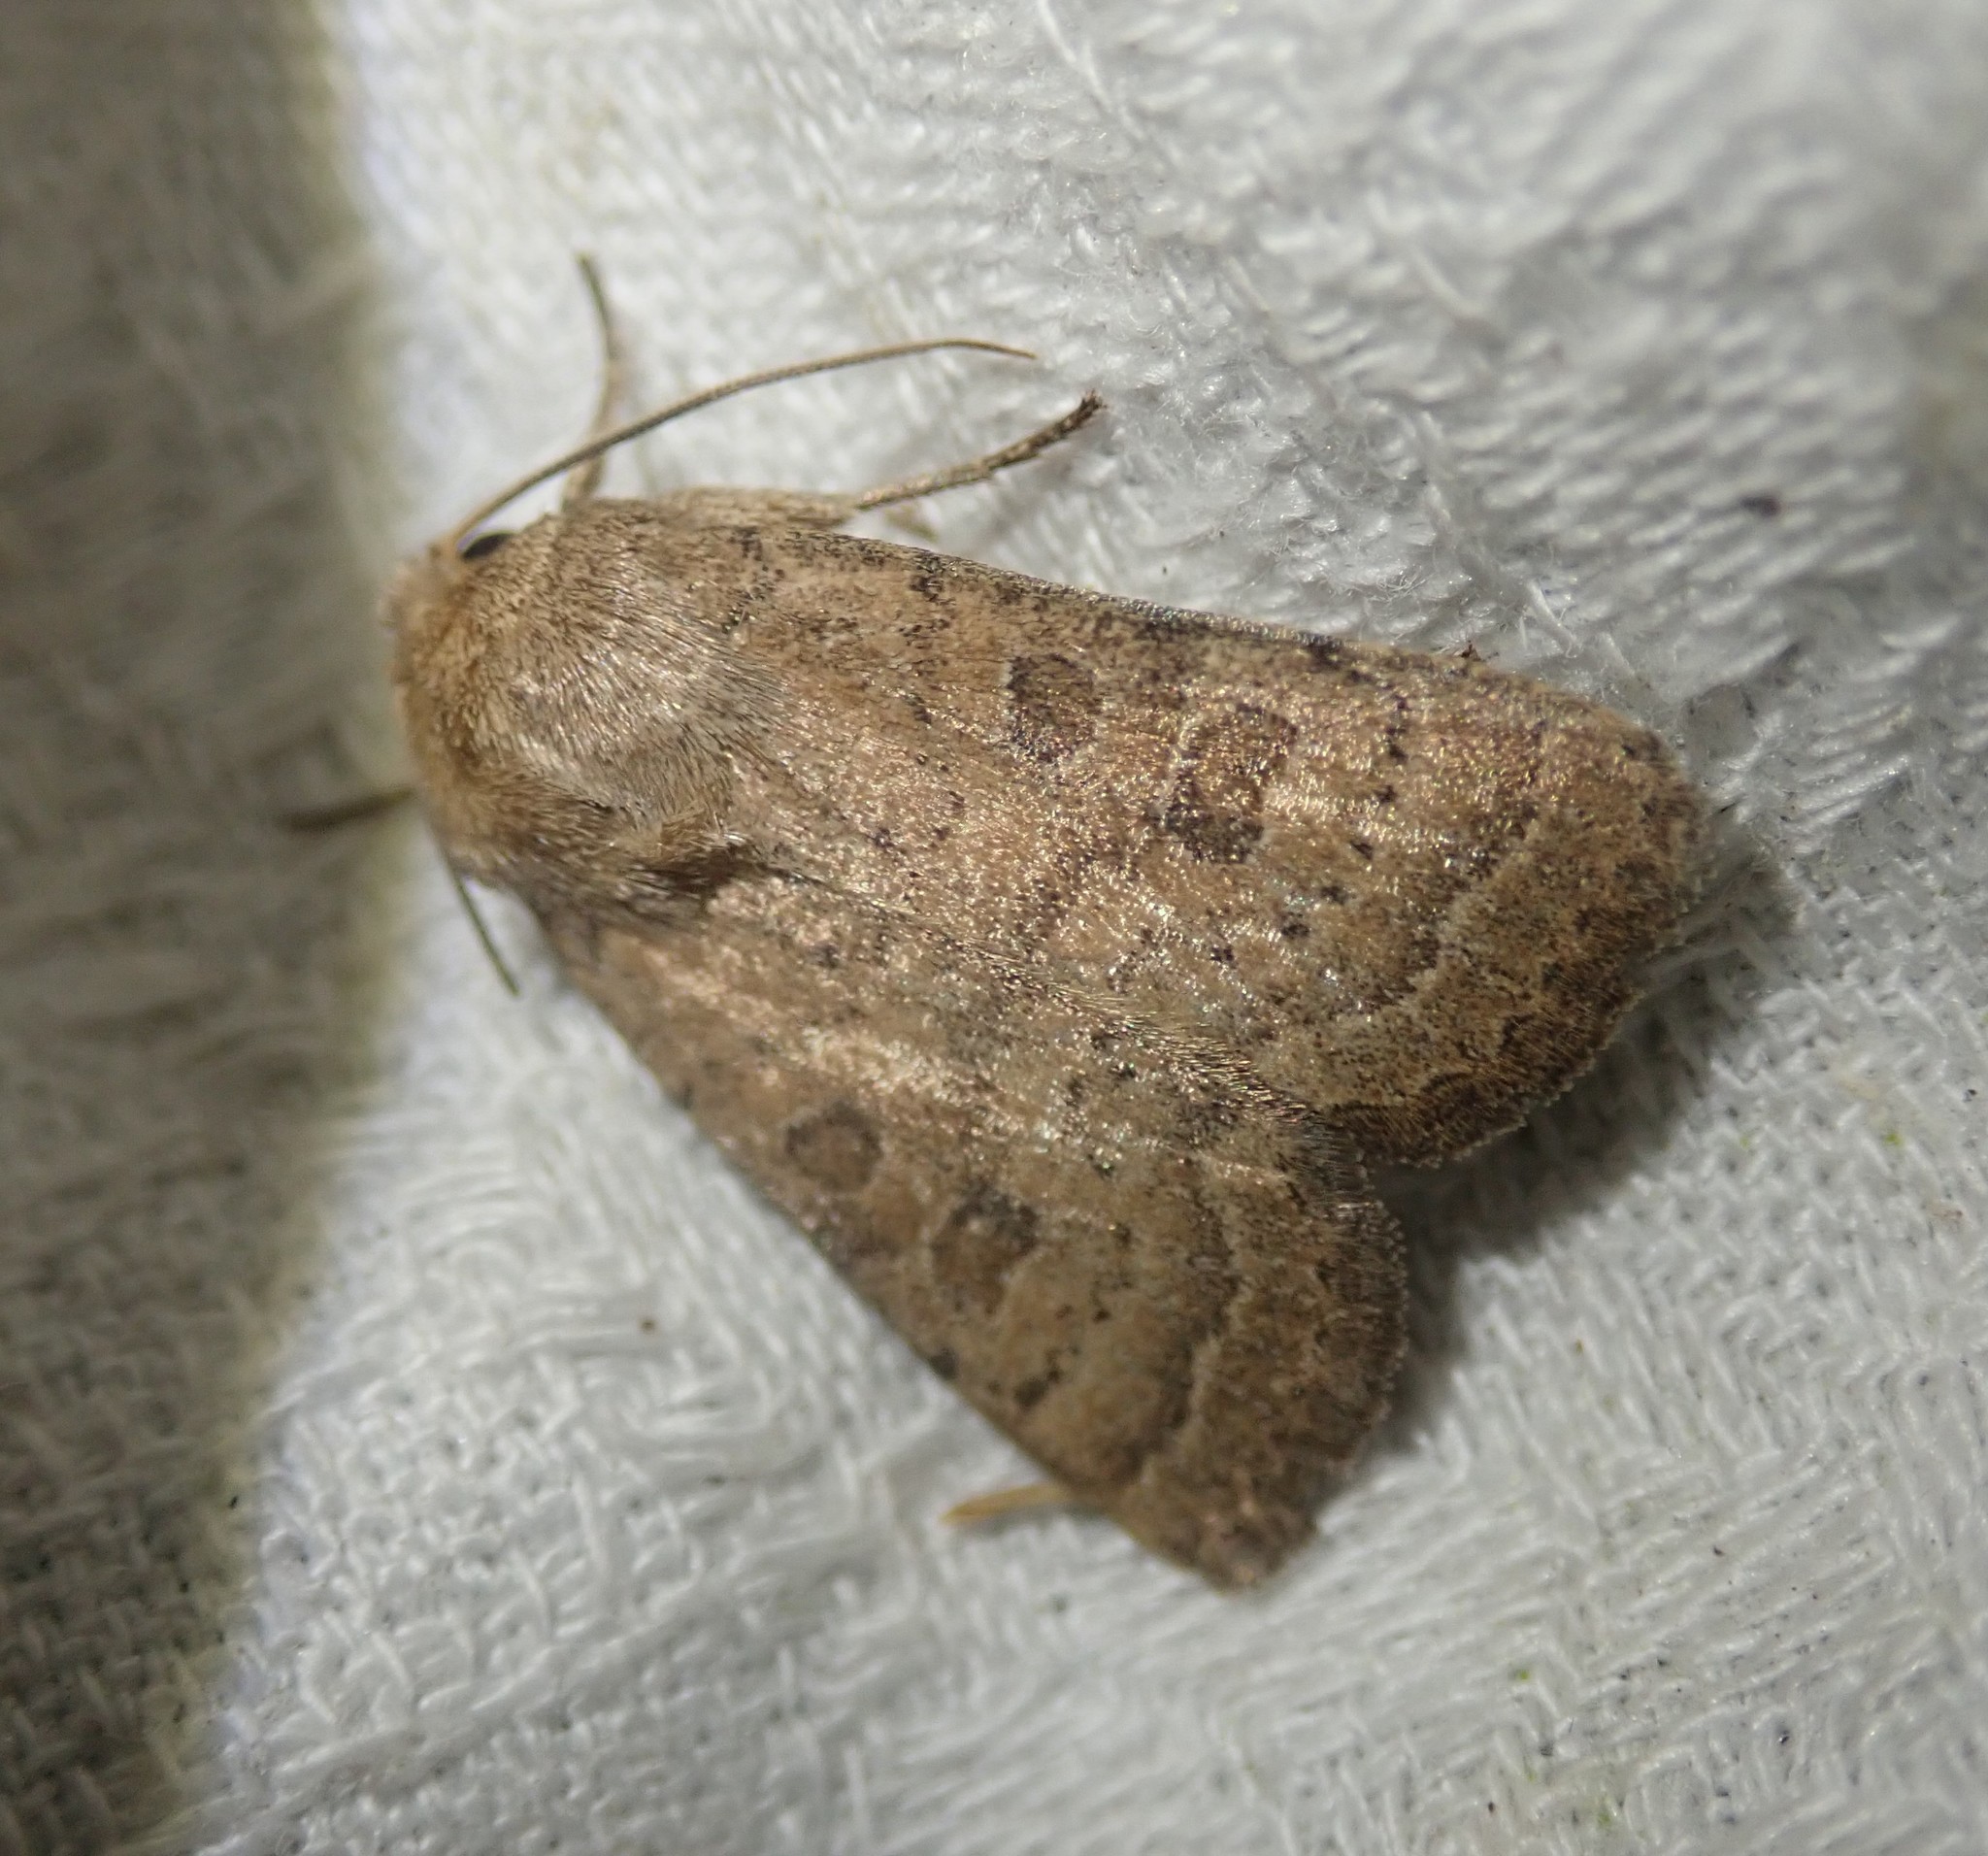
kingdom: Animalia
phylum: Arthropoda
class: Insecta
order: Lepidoptera
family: Noctuidae
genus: Hoplodrina
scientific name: Hoplodrina octogenaria
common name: Uncertain
